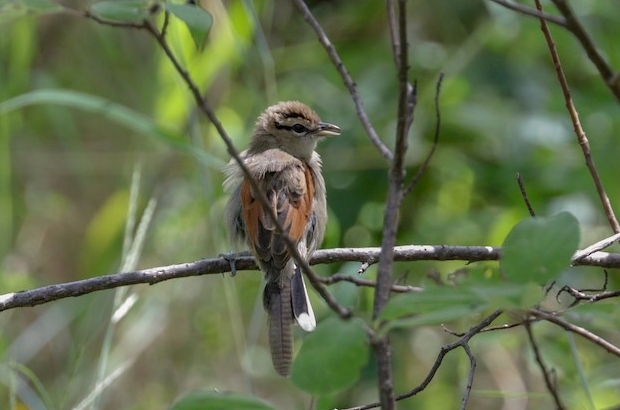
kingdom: Animalia
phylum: Chordata
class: Aves
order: Passeriformes
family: Malaconotidae
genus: Tchagra
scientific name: Tchagra australis
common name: Brown-crowned tchagra
